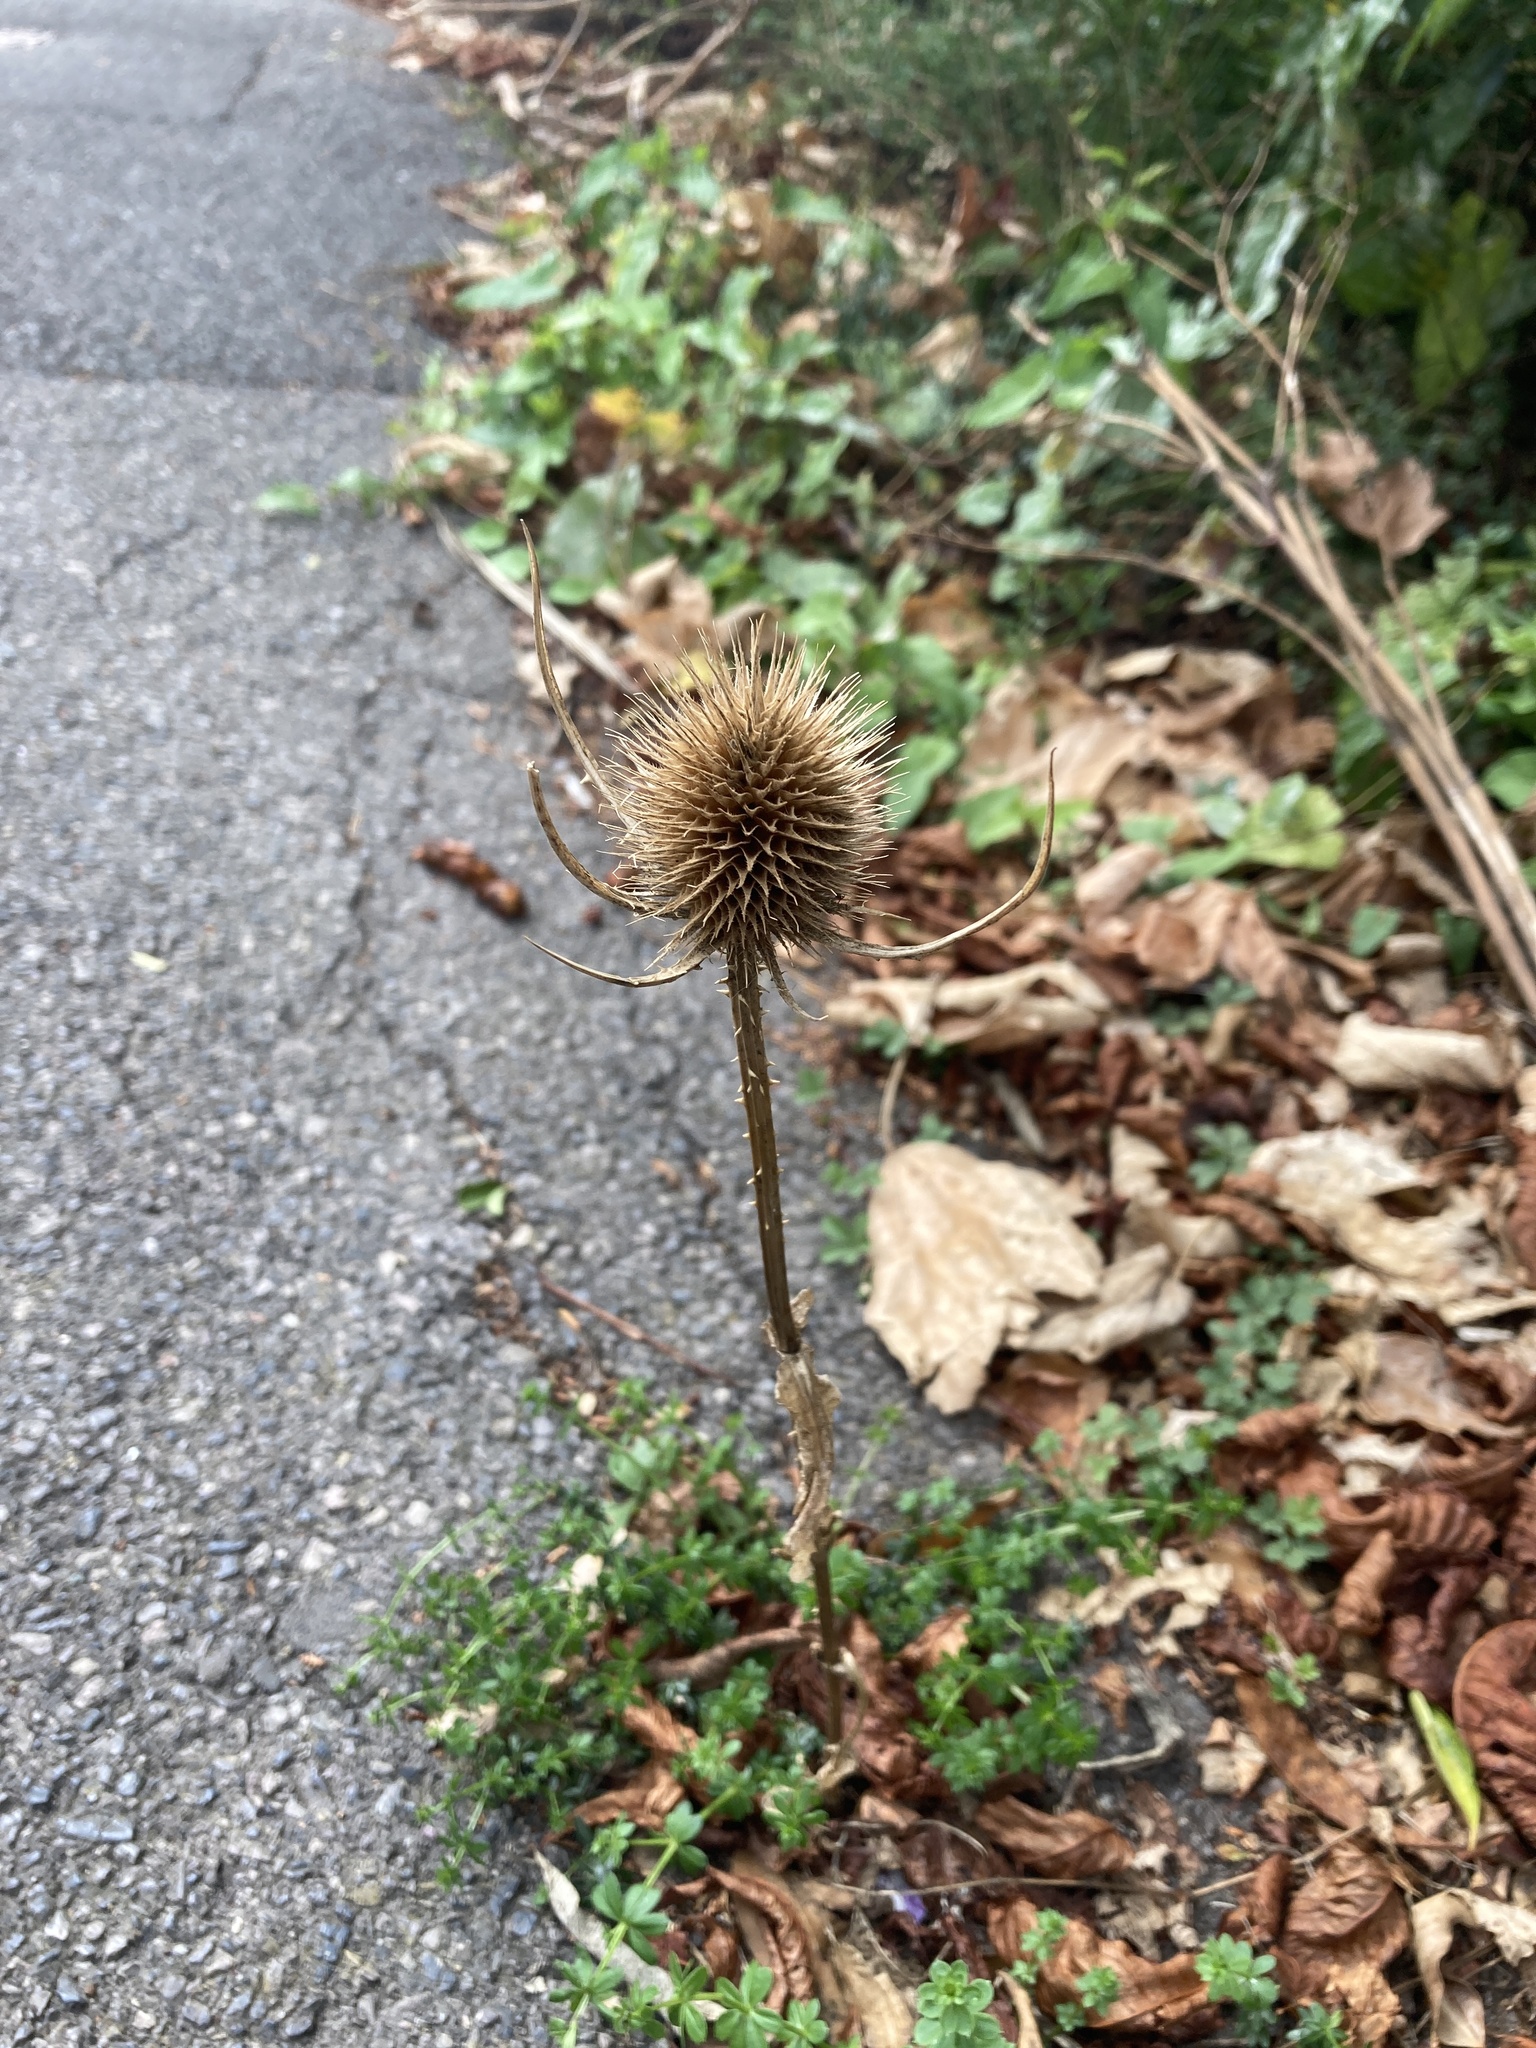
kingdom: Plantae
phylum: Tracheophyta
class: Magnoliopsida
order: Dipsacales
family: Caprifoliaceae
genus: Dipsacus
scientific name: Dipsacus fullonum
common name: Teasel
